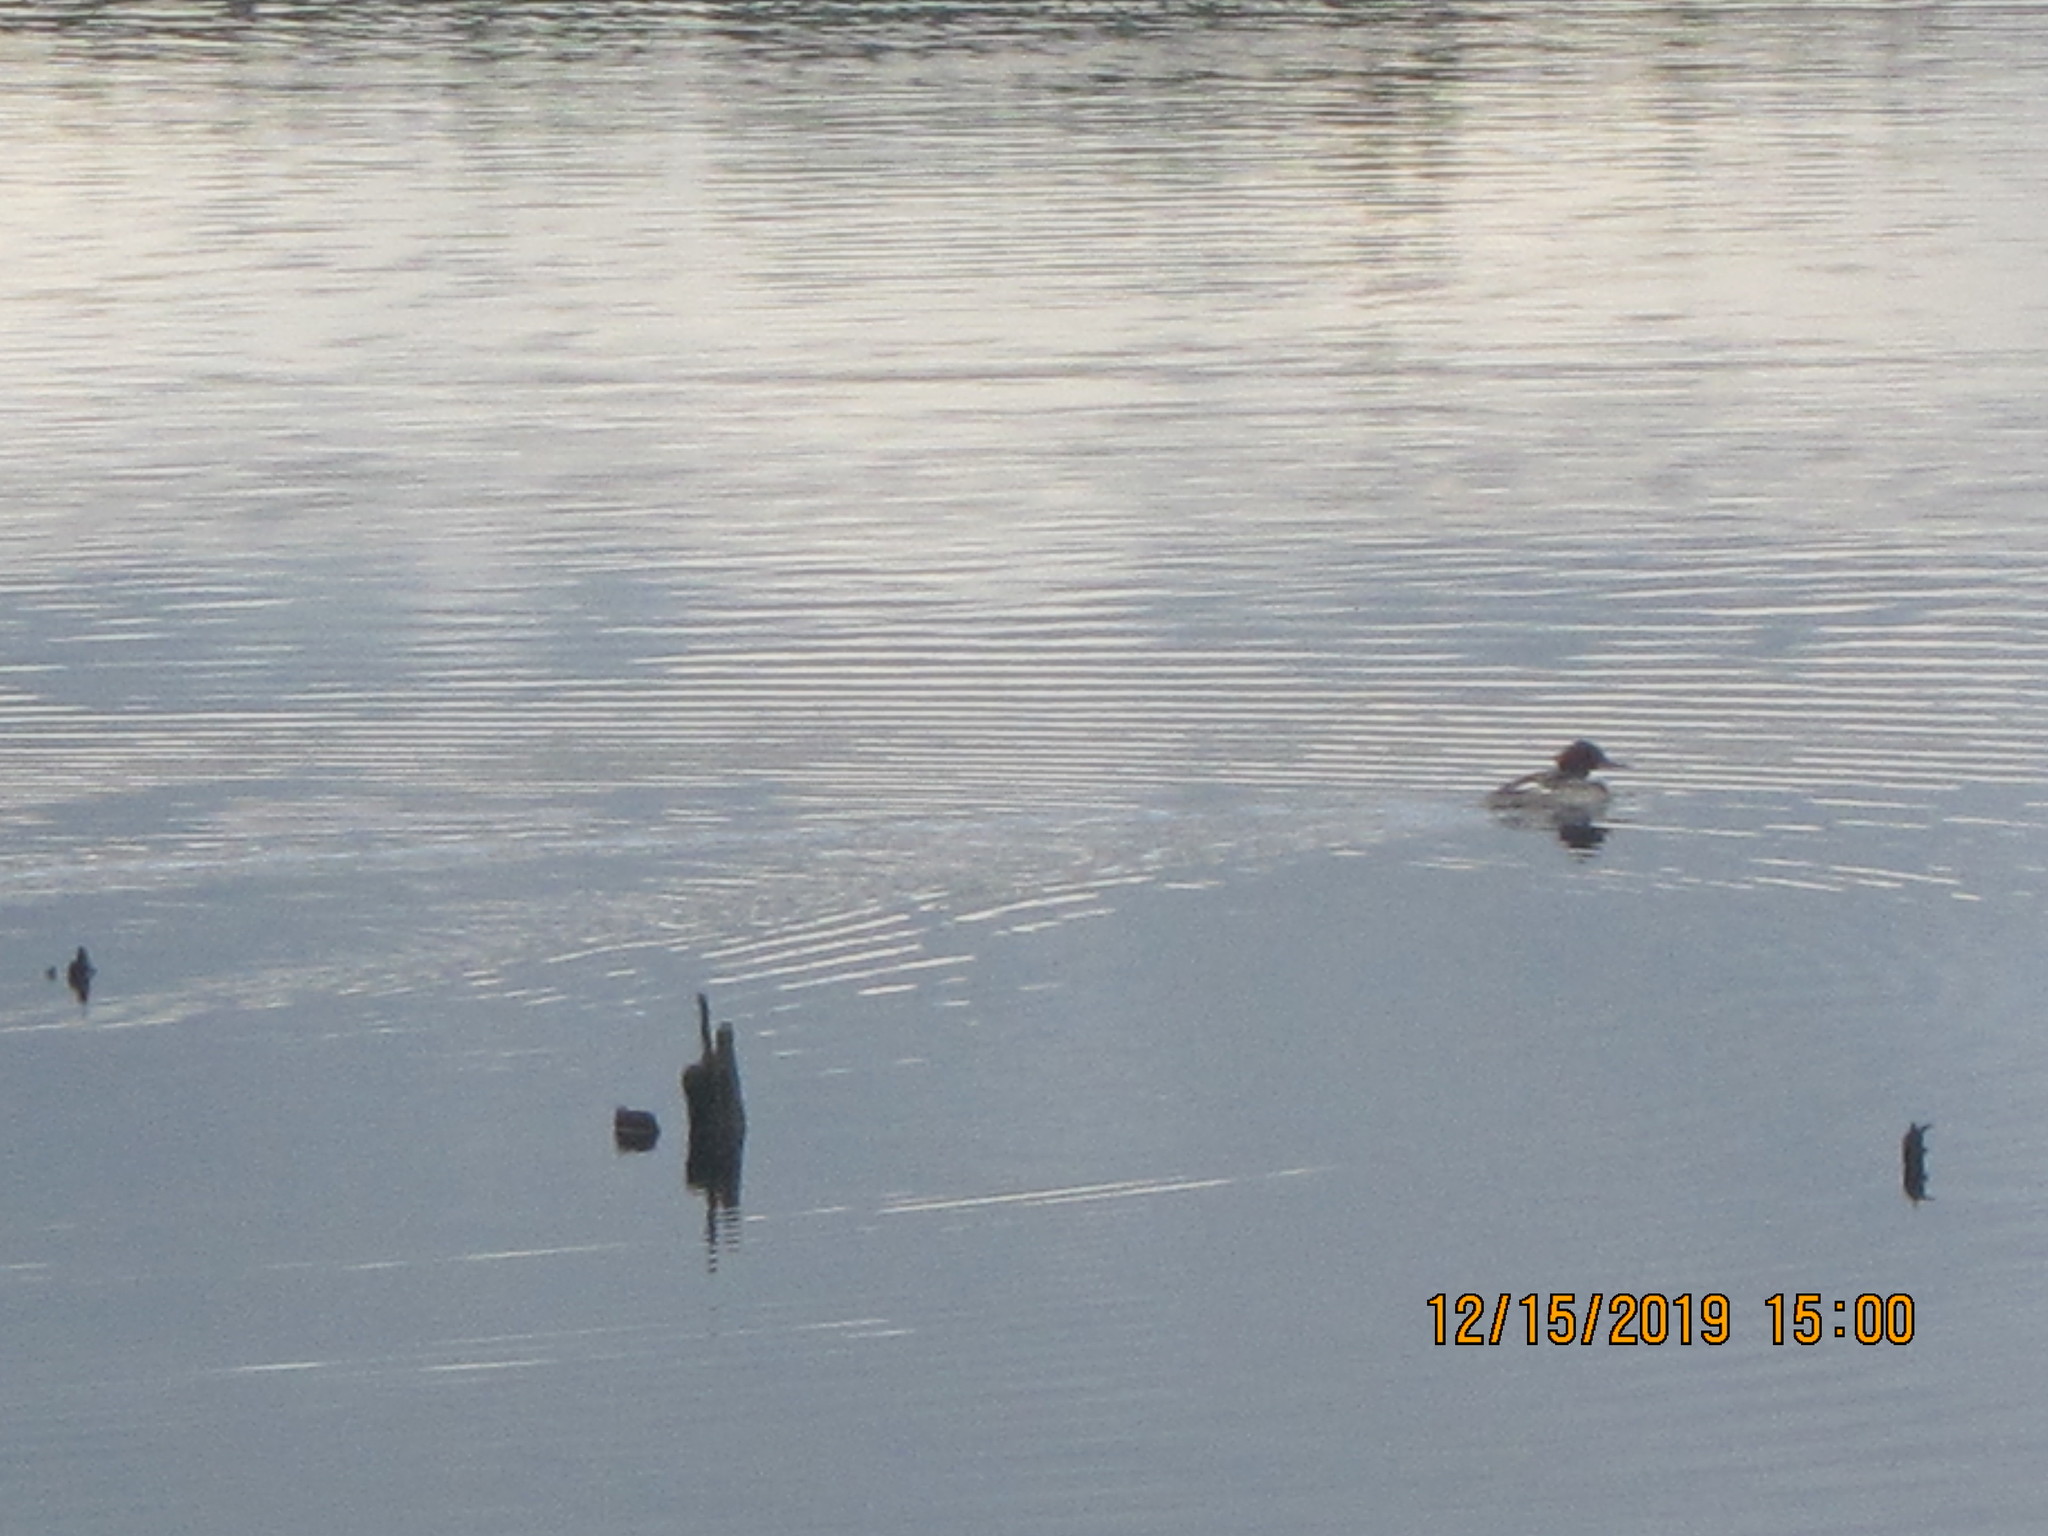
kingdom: Animalia
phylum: Chordata
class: Aves
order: Anseriformes
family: Anatidae
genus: Mergus
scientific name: Mergus merganser
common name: Common merganser
